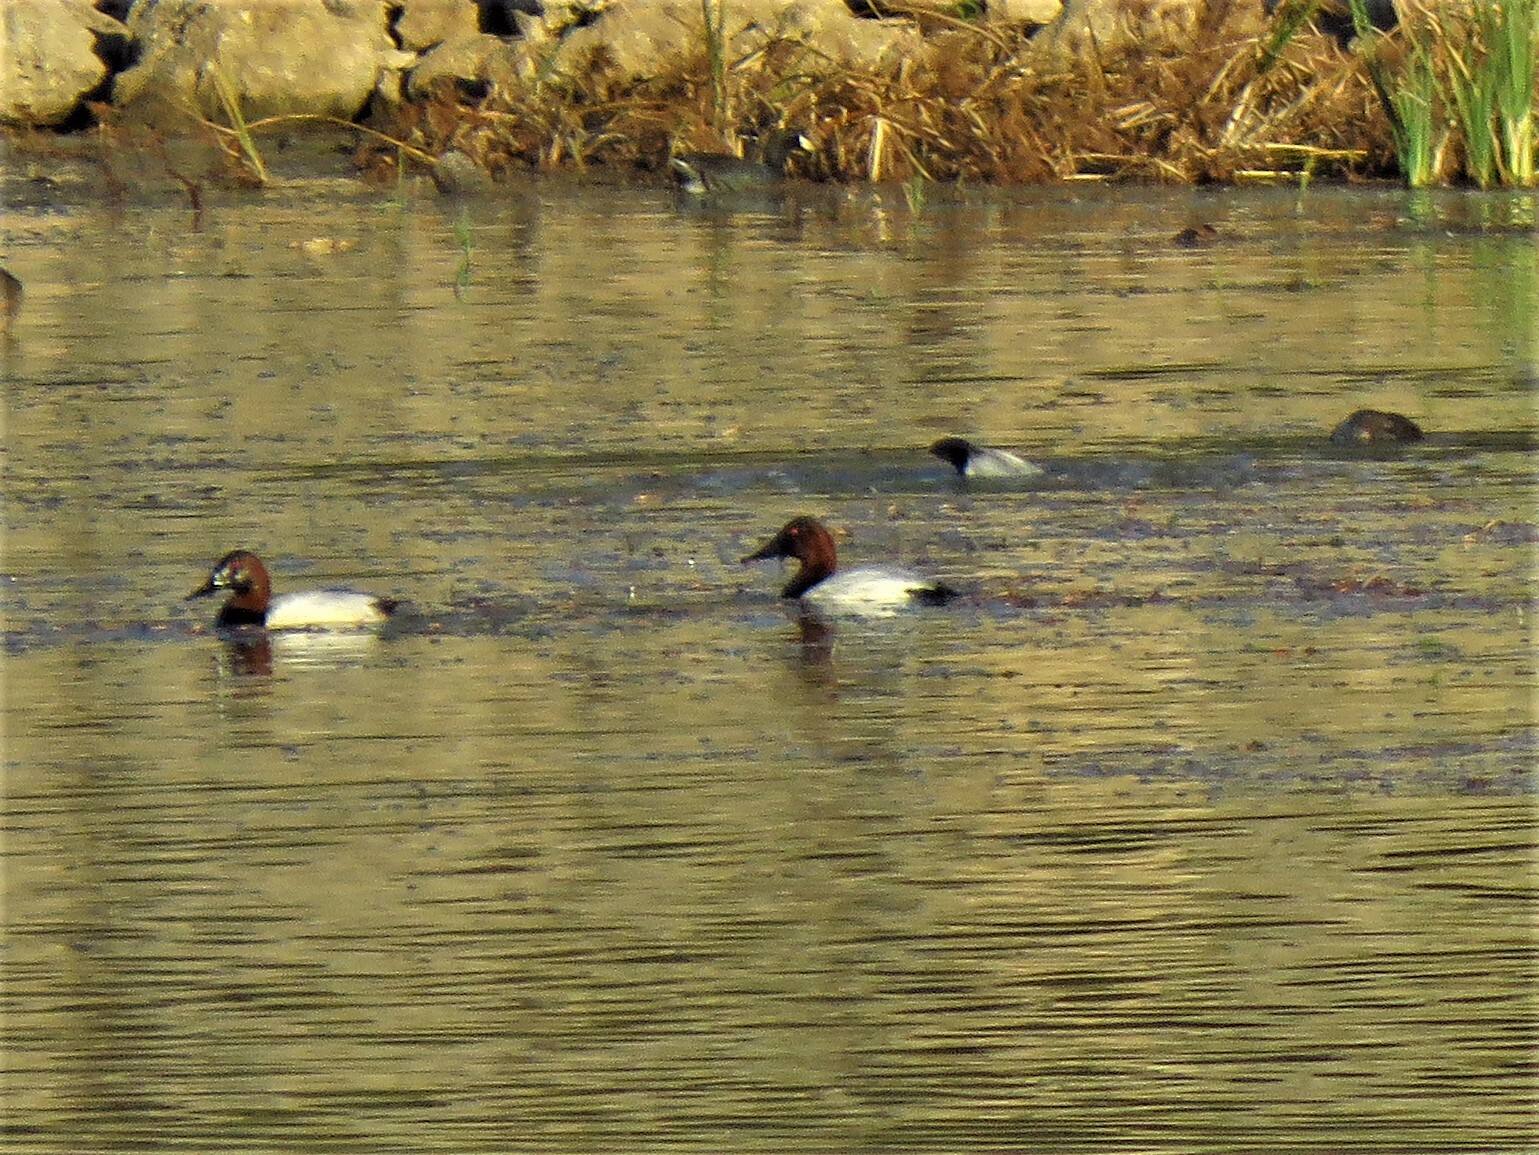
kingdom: Animalia
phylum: Chordata
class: Aves
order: Anseriformes
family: Anatidae
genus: Aythya
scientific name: Aythya valisineria
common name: Canvasback
